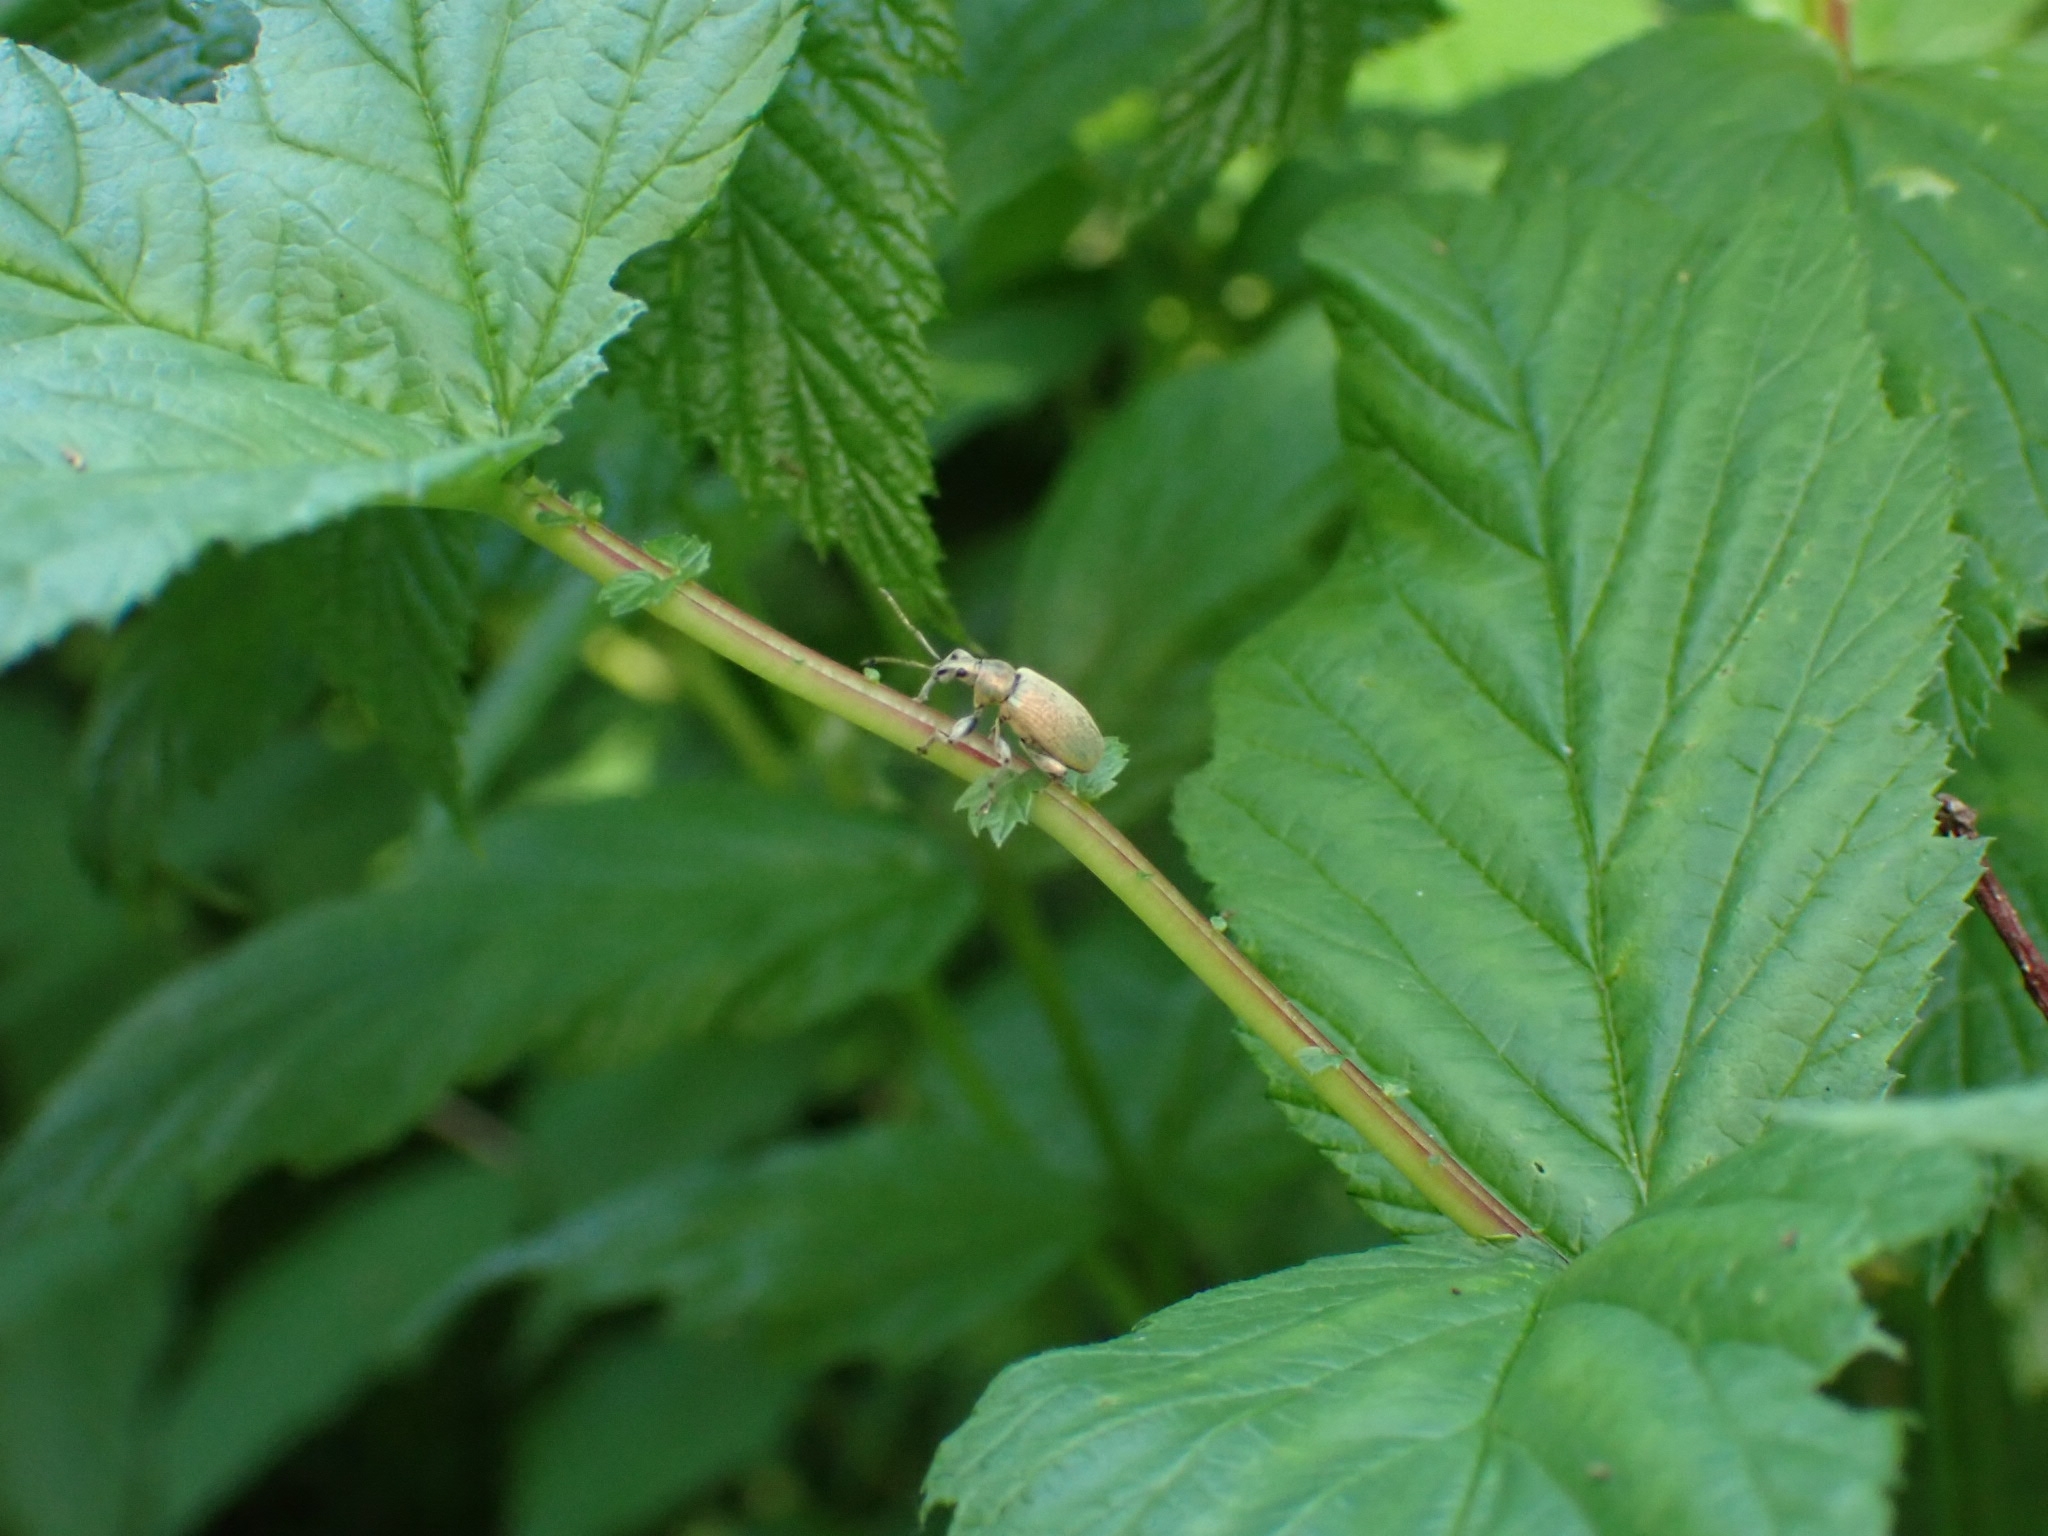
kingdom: Animalia
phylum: Arthropoda
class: Insecta
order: Coleoptera
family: Curculionidae
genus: Phyllobius
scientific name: Phyllobius pomaceus
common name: Green nettle weevil
